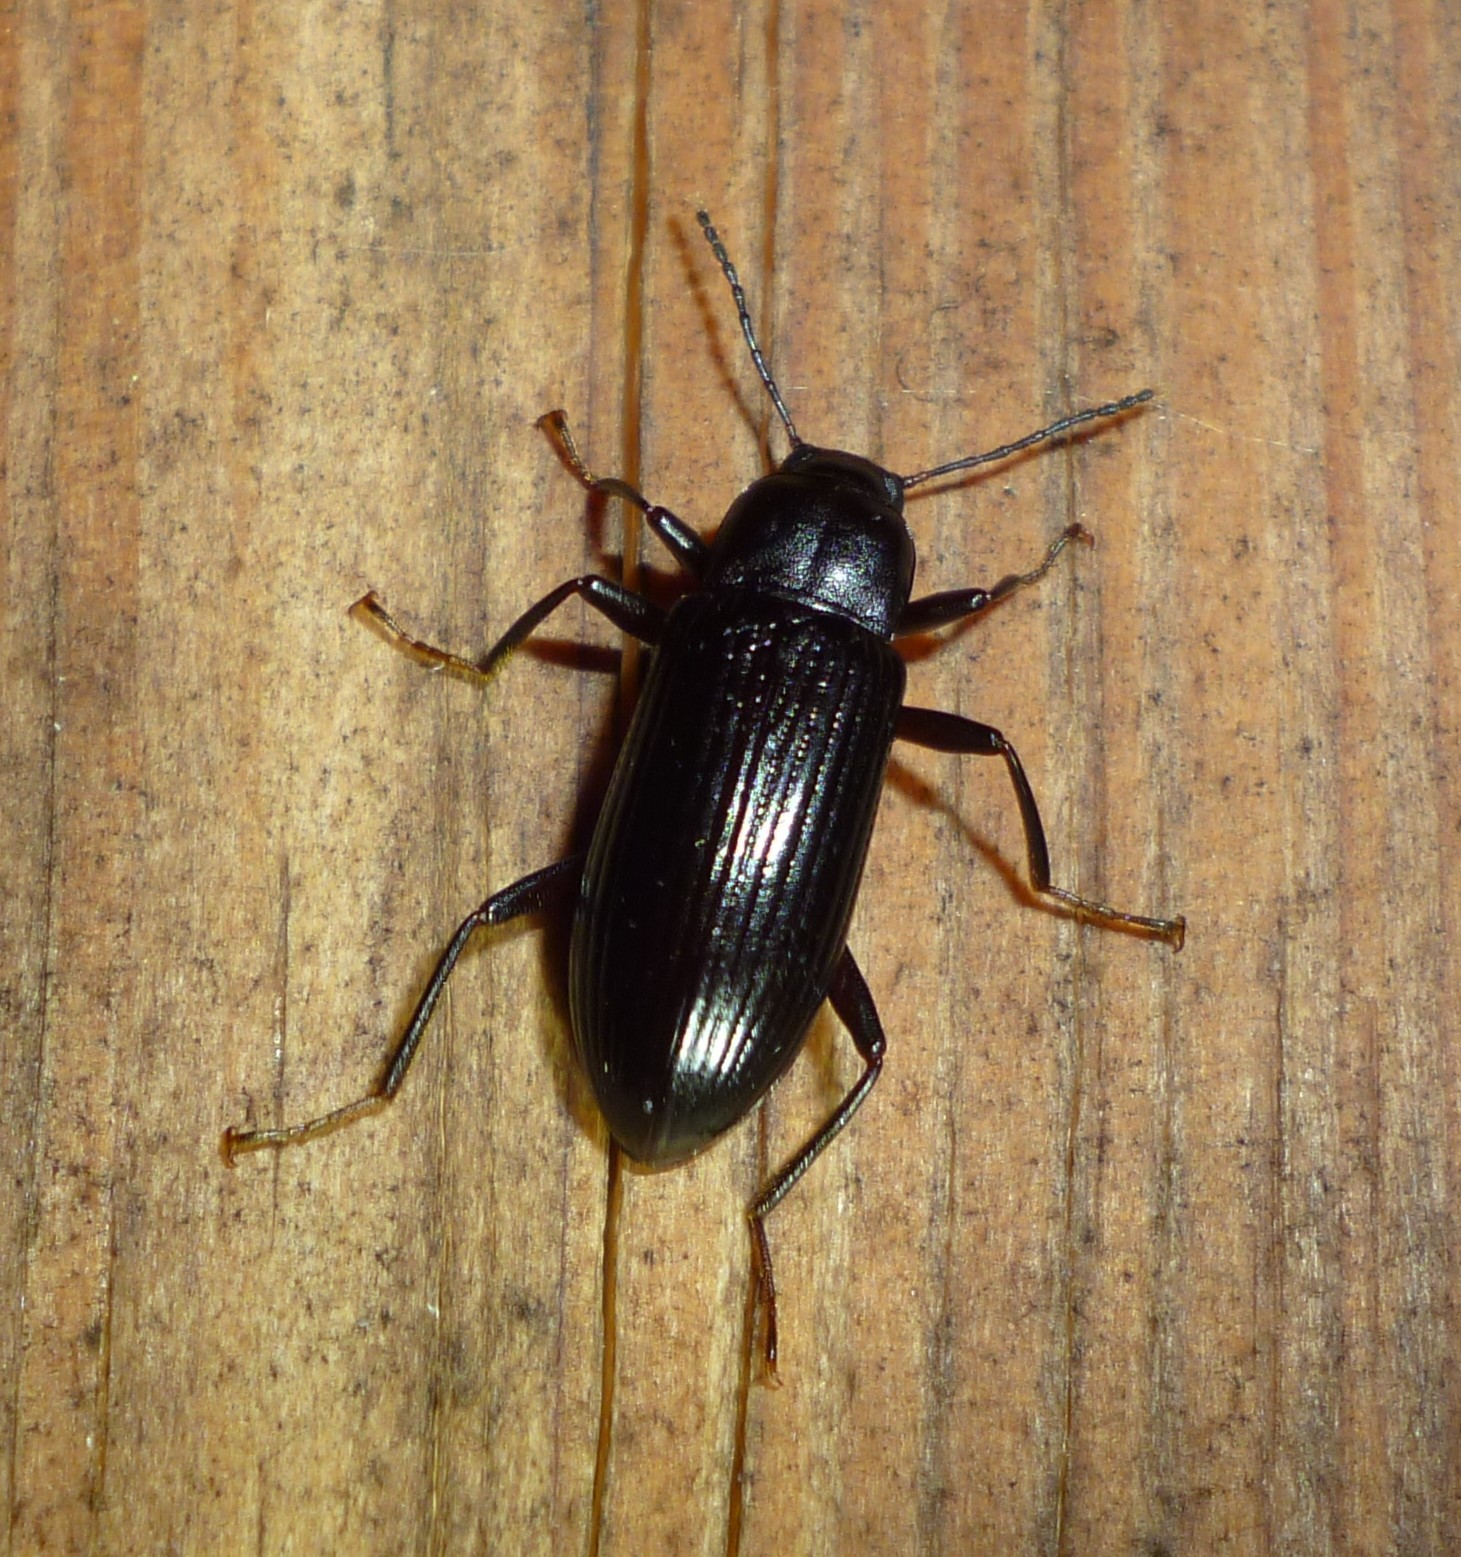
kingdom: Animalia
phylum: Arthropoda
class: Insecta
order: Coleoptera
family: Tenebrionidae
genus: Strongylium
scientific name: Strongylium terminatum
